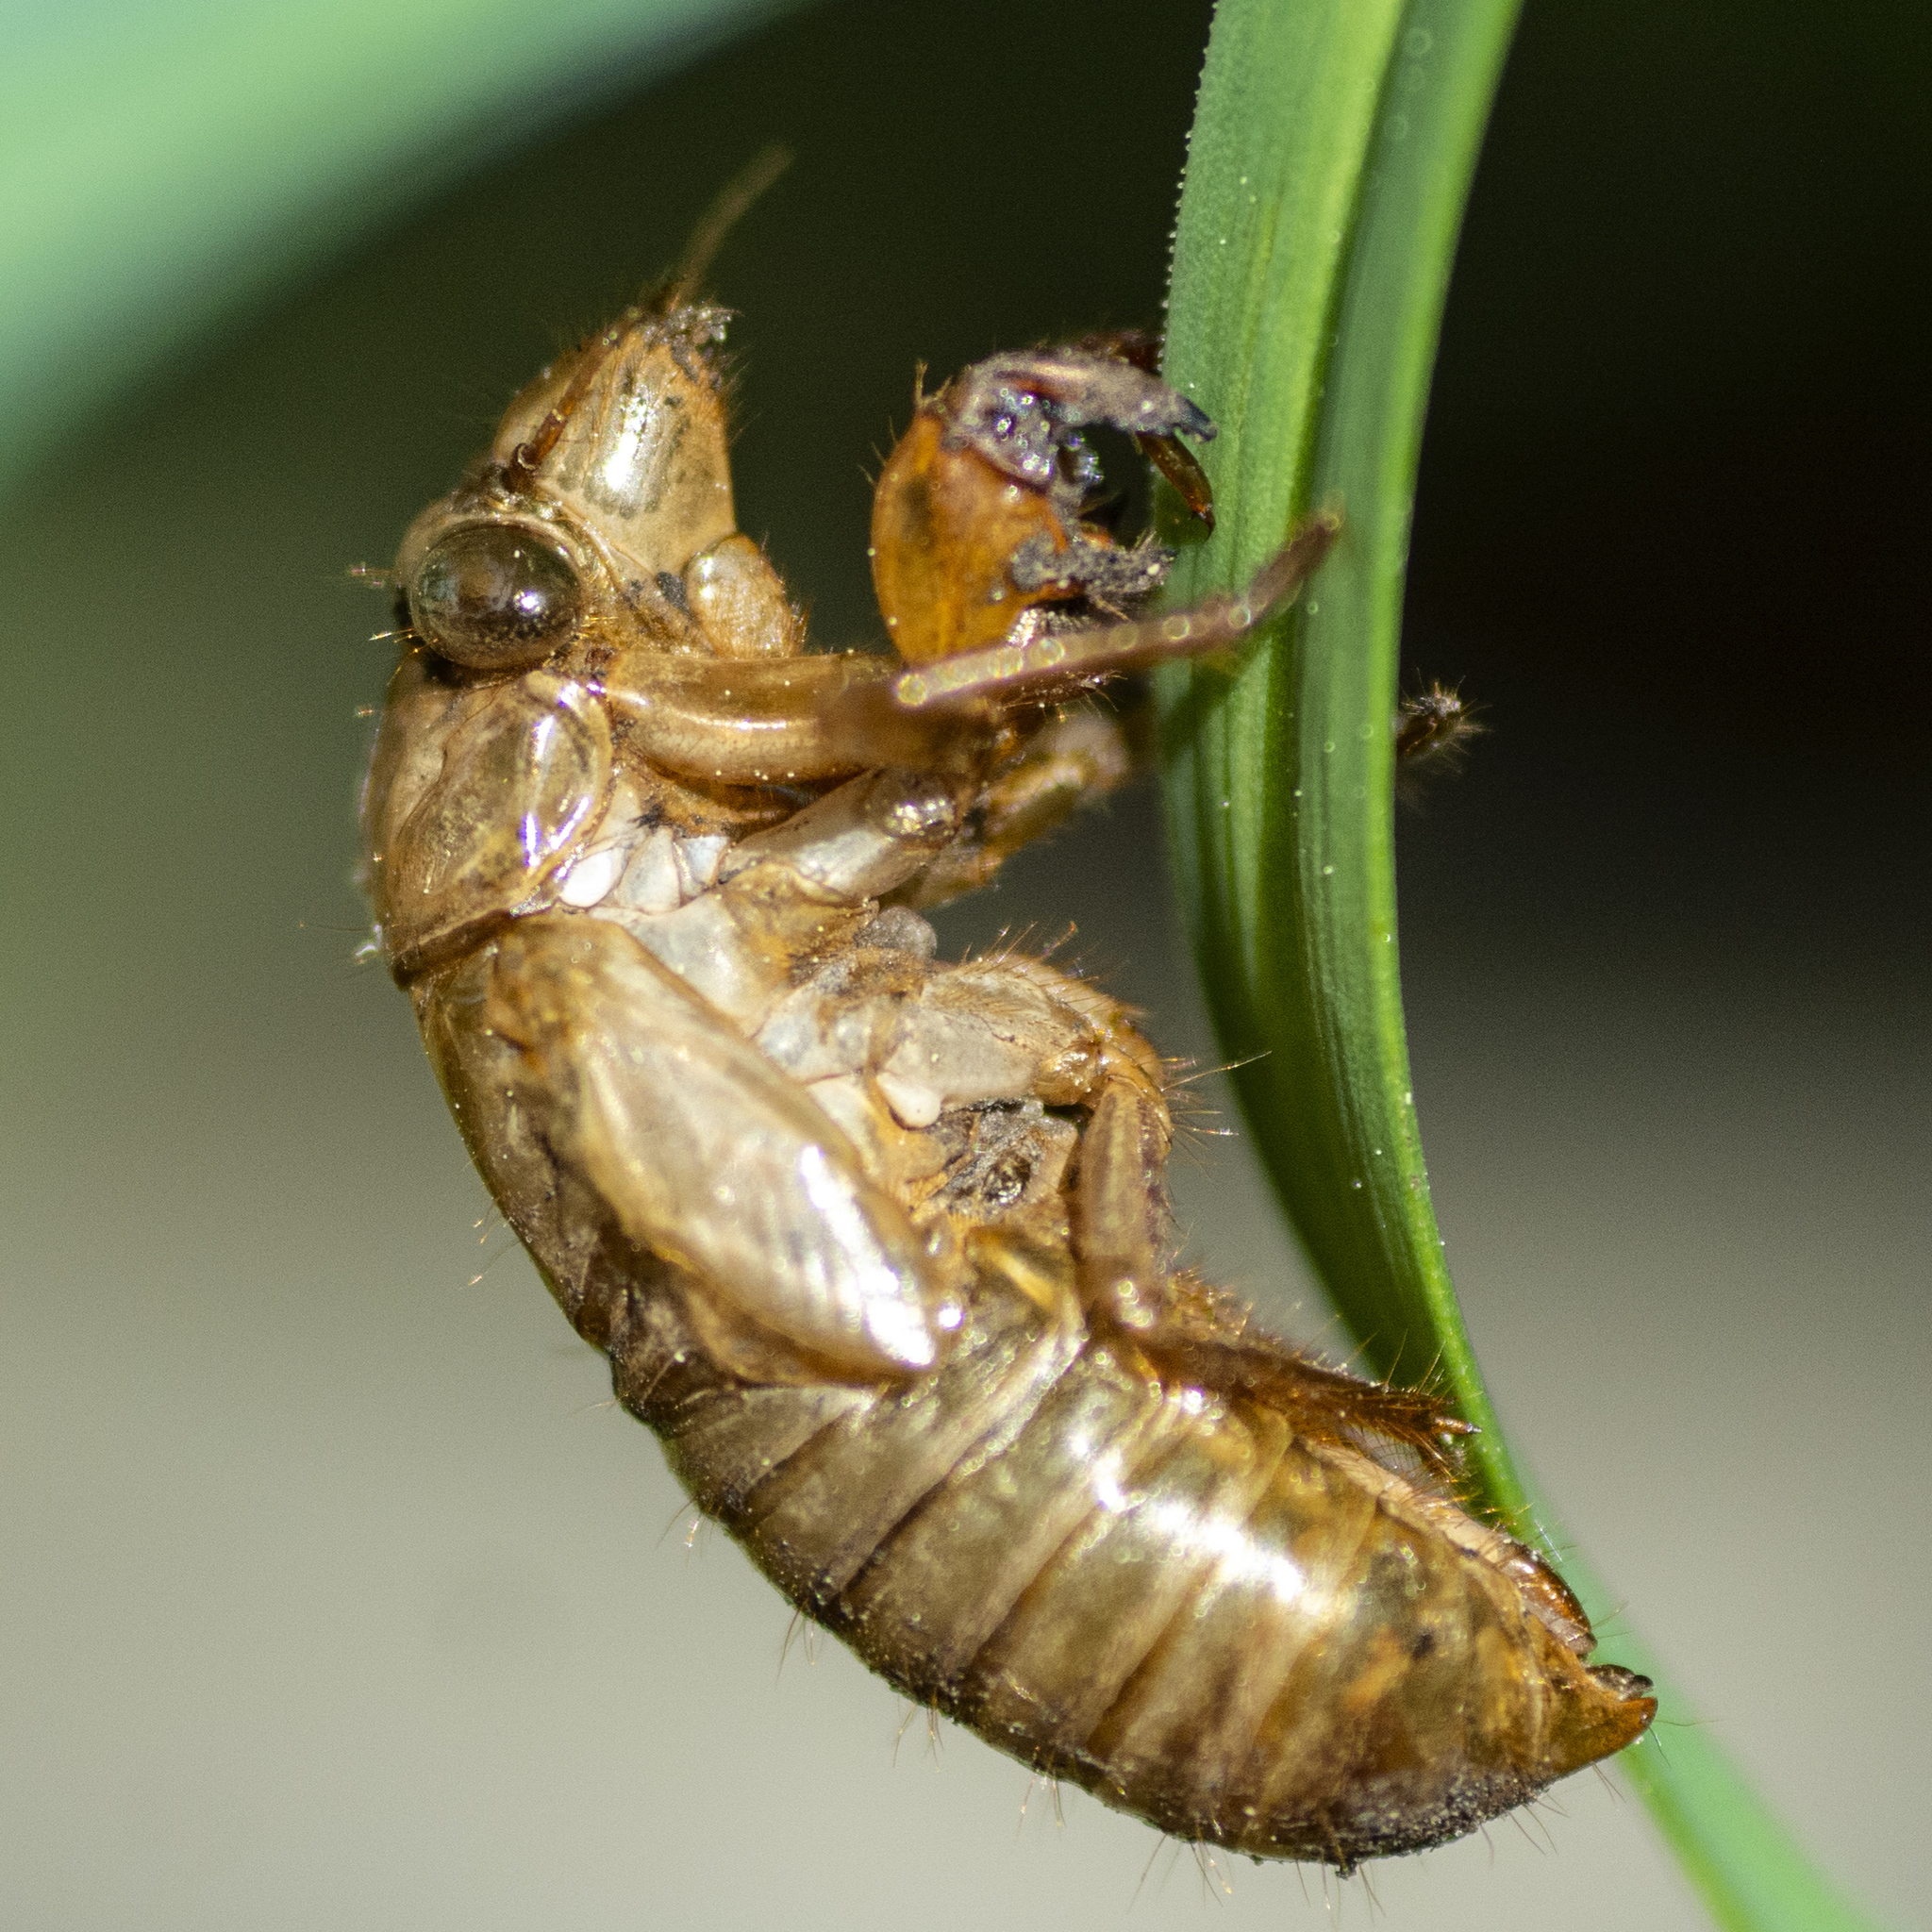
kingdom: Animalia
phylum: Arthropoda
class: Insecta
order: Hemiptera
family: Cicadidae
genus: Magicicada
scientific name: Magicicada
